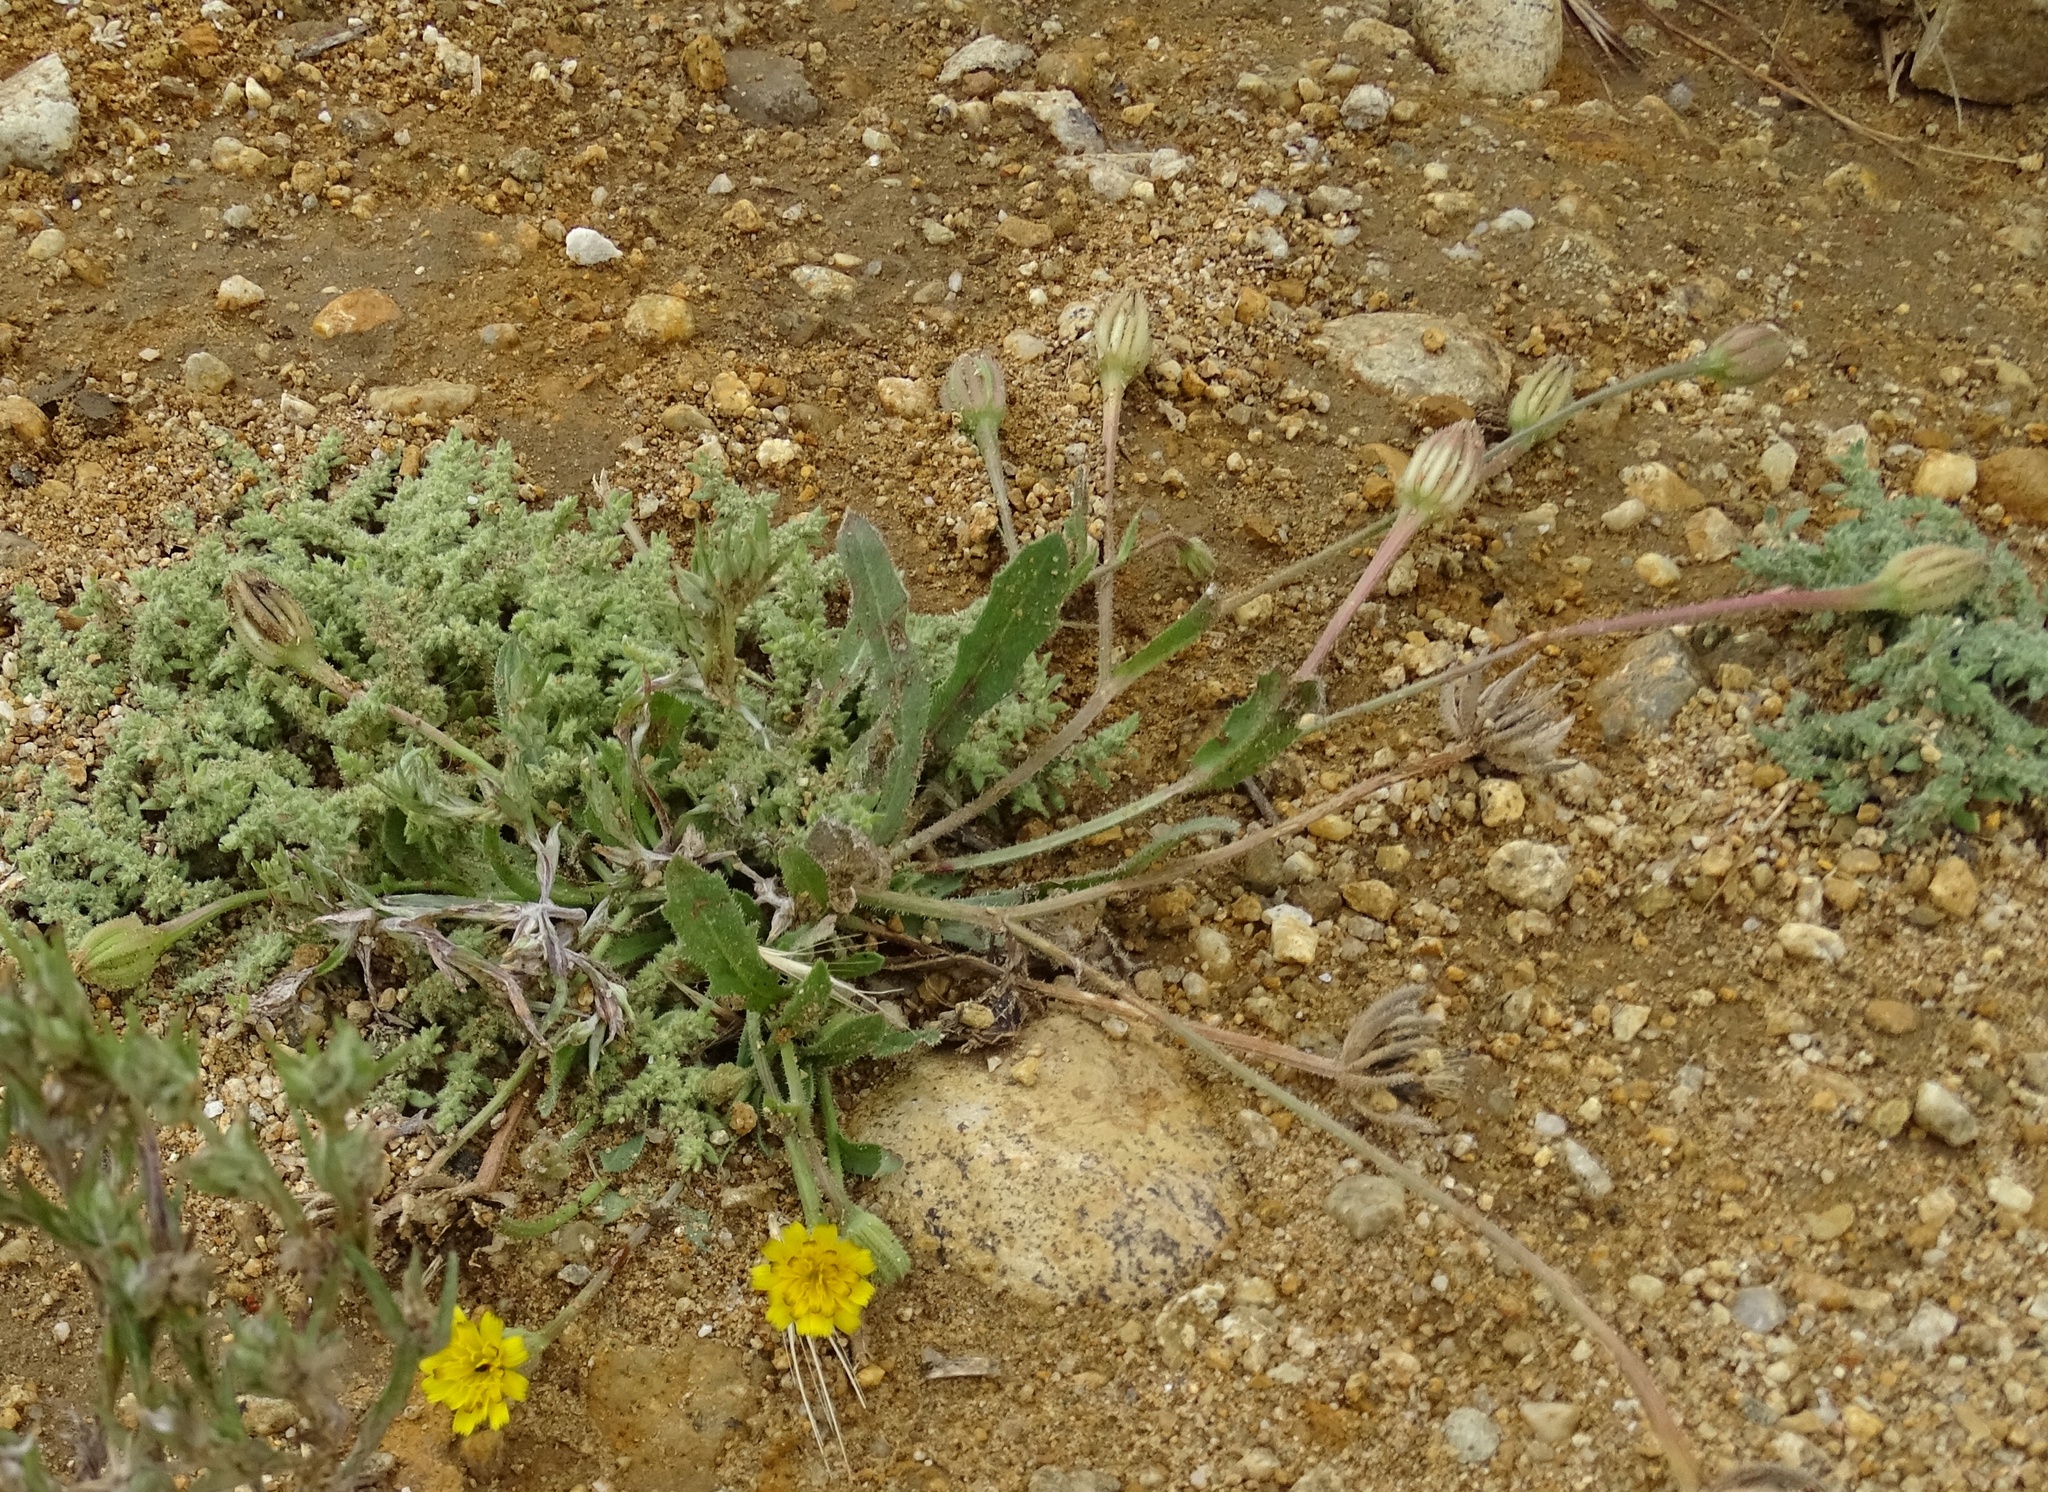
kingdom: Plantae
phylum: Tracheophyta
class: Magnoliopsida
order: Asterales
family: Asteraceae
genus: Hedypnois
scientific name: Hedypnois rhagadioloides
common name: Cretan weed
